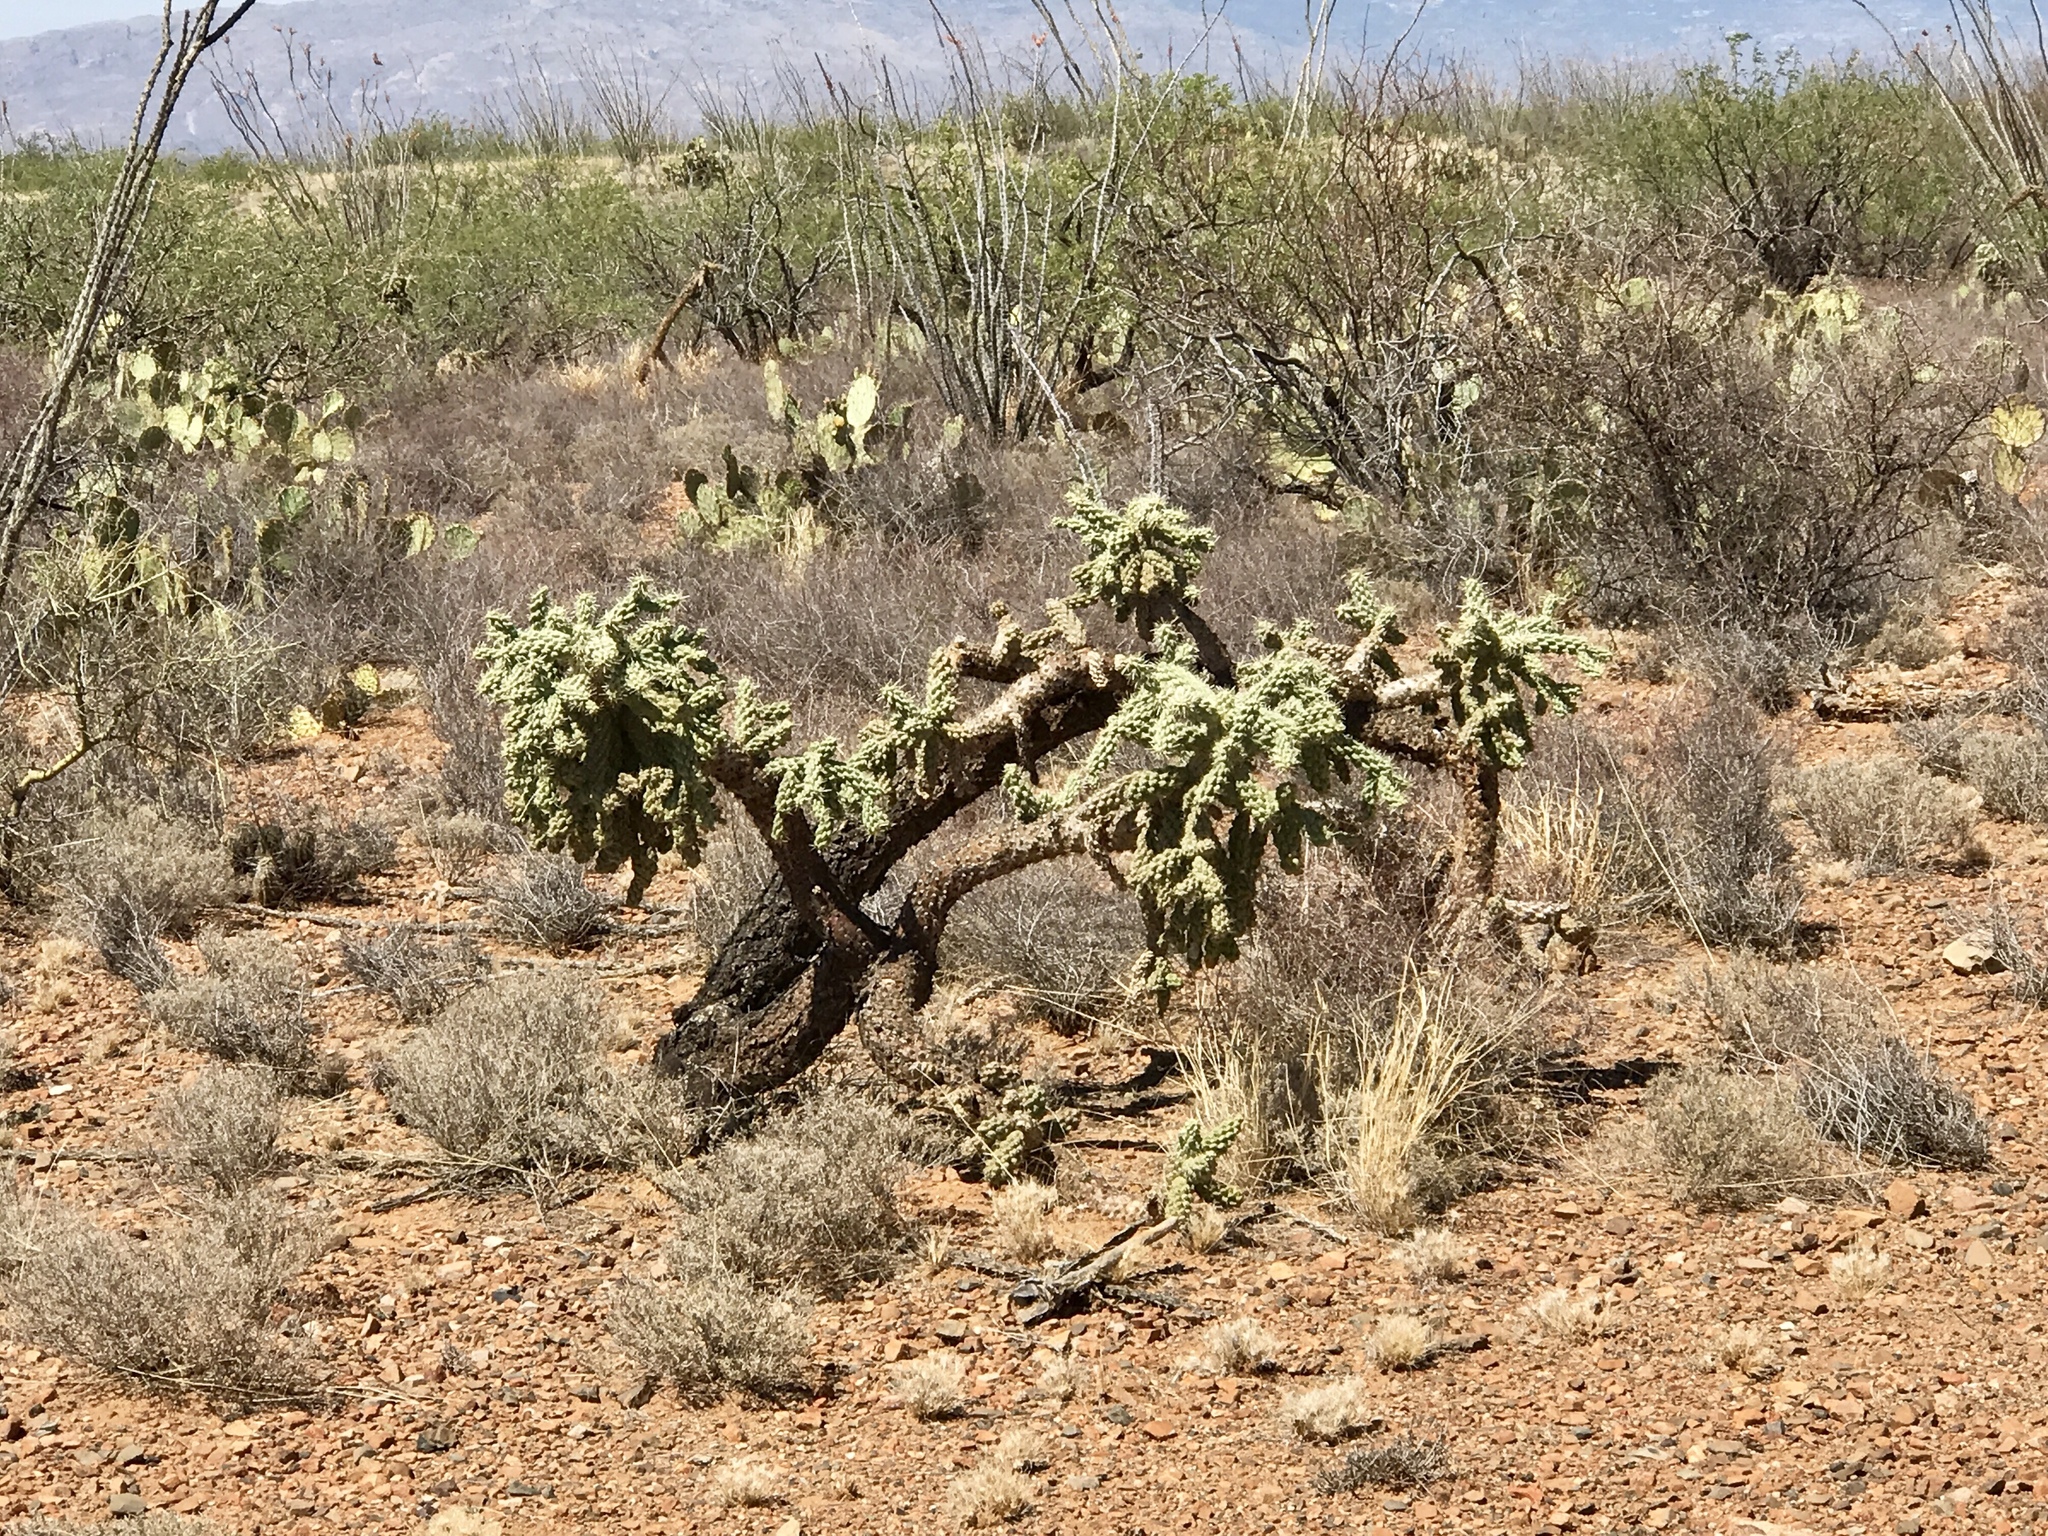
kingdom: Plantae
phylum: Tracheophyta
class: Magnoliopsida
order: Caryophyllales
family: Cactaceae
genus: Cylindropuntia
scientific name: Cylindropuntia fulgida
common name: Jumping cholla
